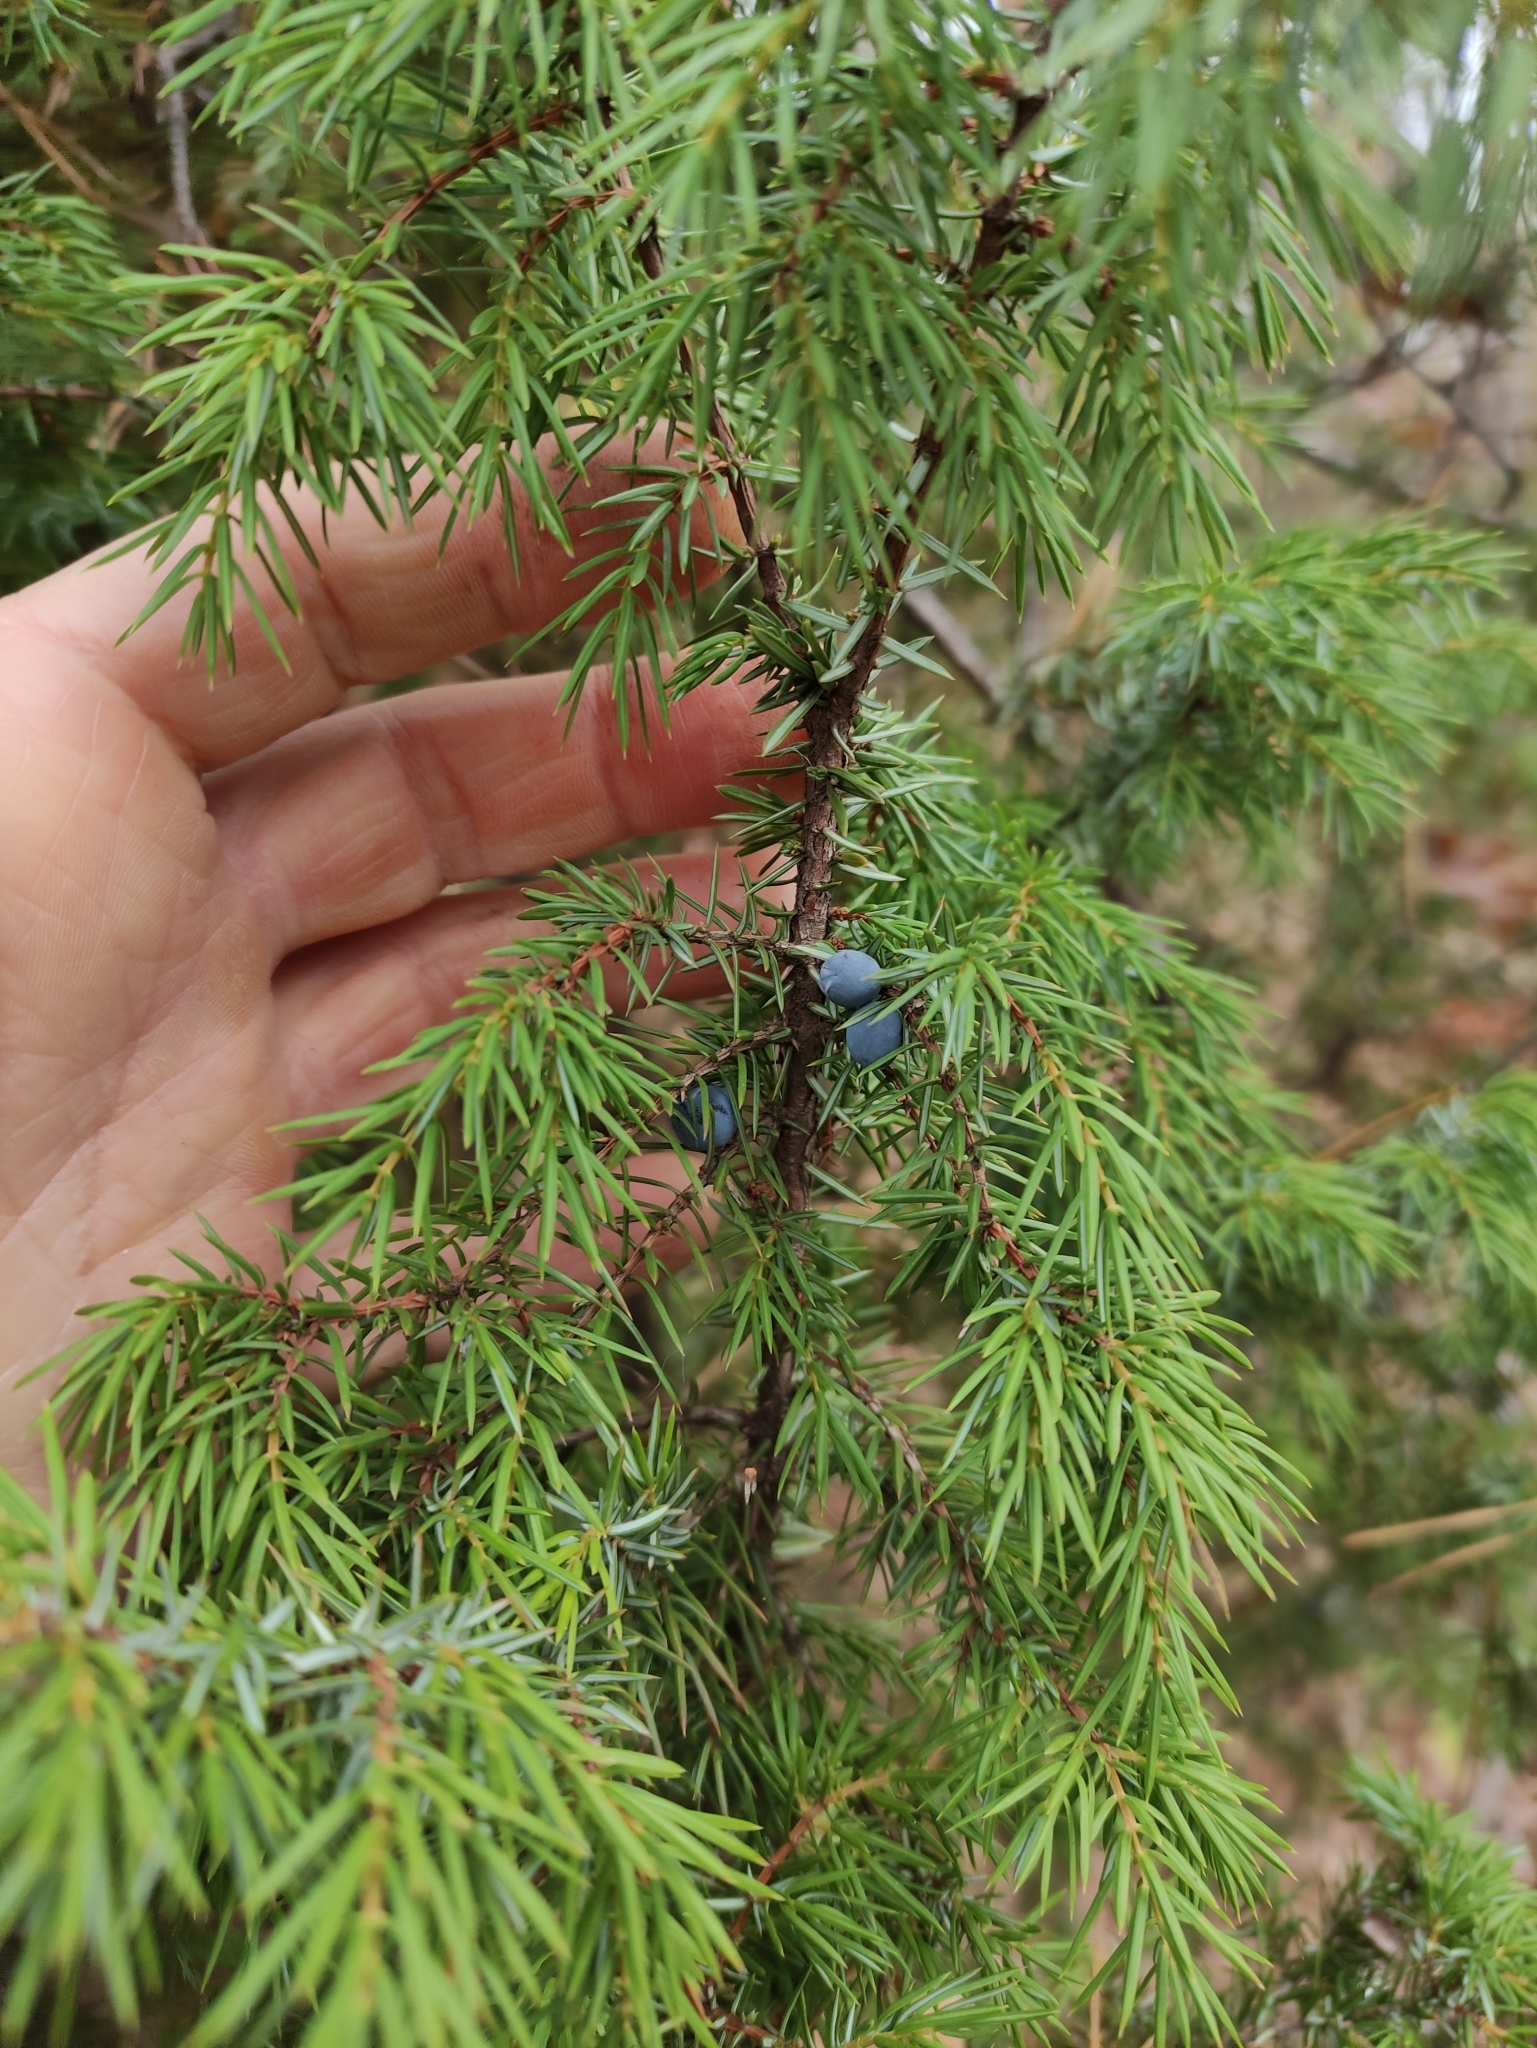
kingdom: Plantae
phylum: Tracheophyta
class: Pinopsida
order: Pinales
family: Cupressaceae
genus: Juniperus
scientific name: Juniperus communis
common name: Common juniper
